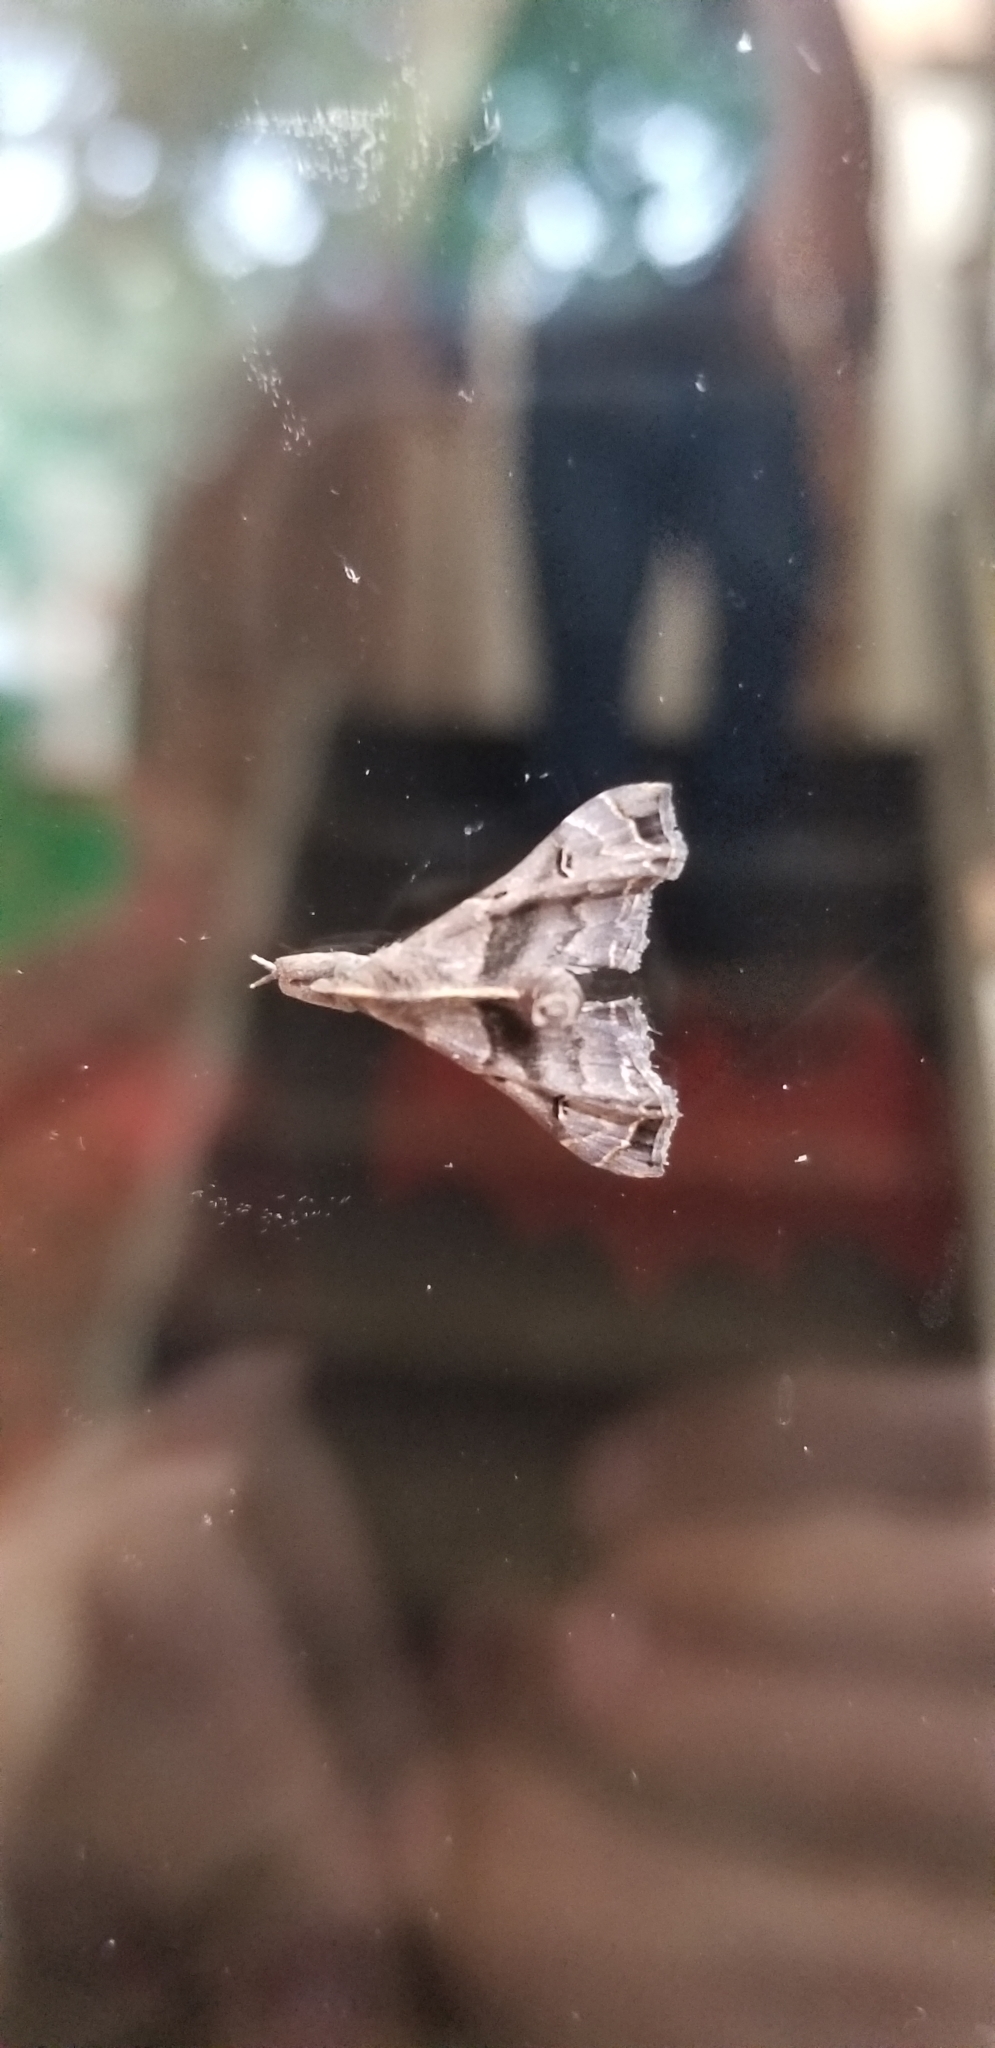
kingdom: Animalia
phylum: Arthropoda
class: Insecta
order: Lepidoptera
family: Erebidae
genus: Palthis
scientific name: Palthis asopialis
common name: Faint-spotted palthis moth
